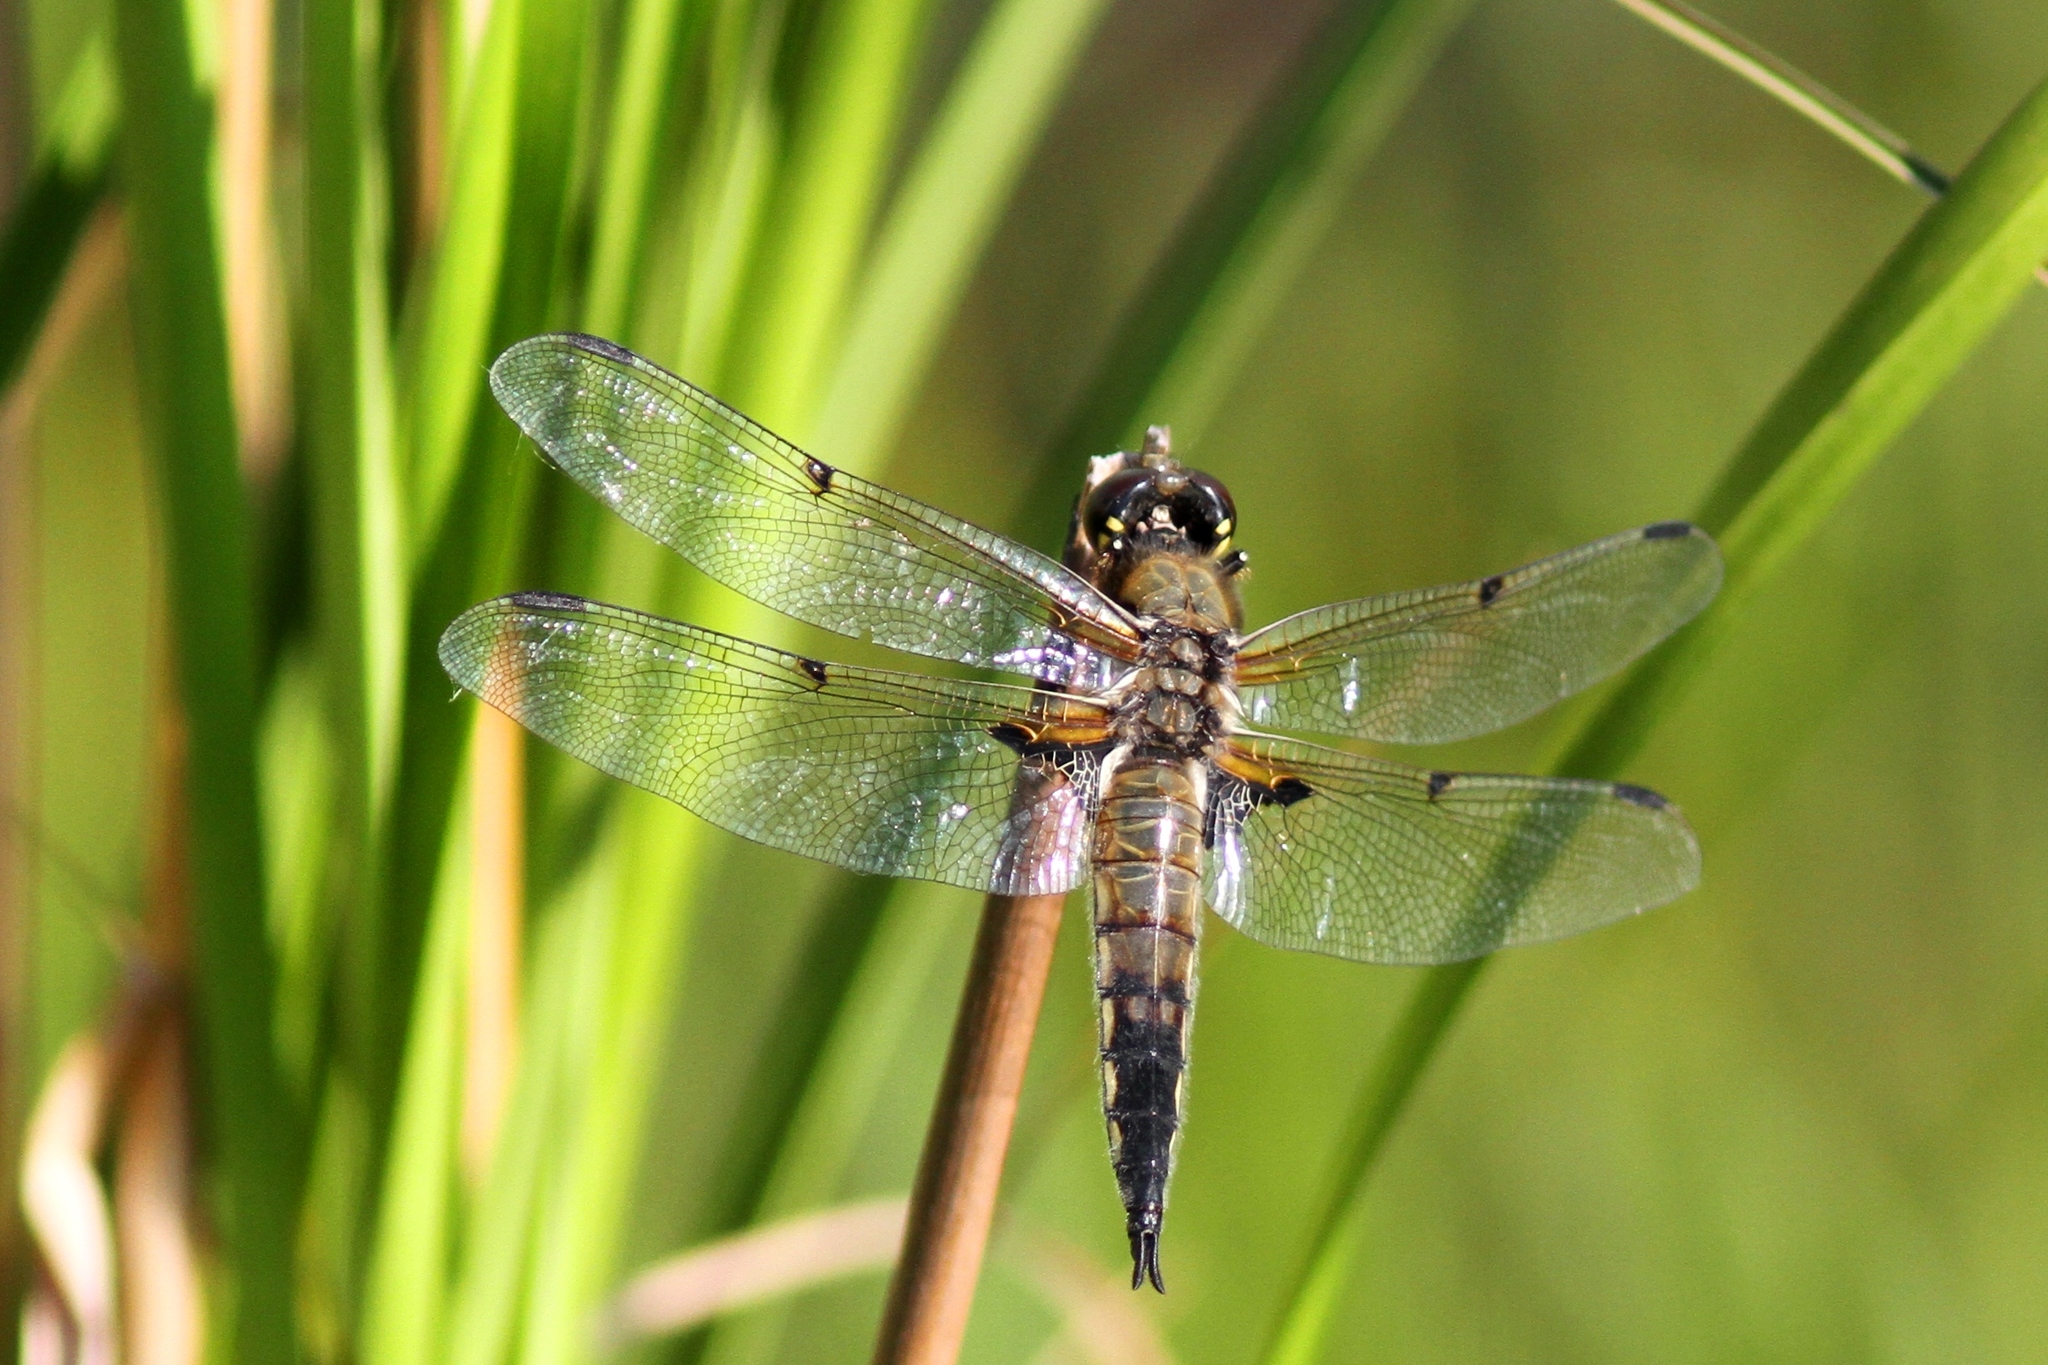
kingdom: Animalia
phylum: Arthropoda
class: Insecta
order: Odonata
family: Libellulidae
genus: Libellula
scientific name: Libellula quadrimaculata
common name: Four-spotted chaser
